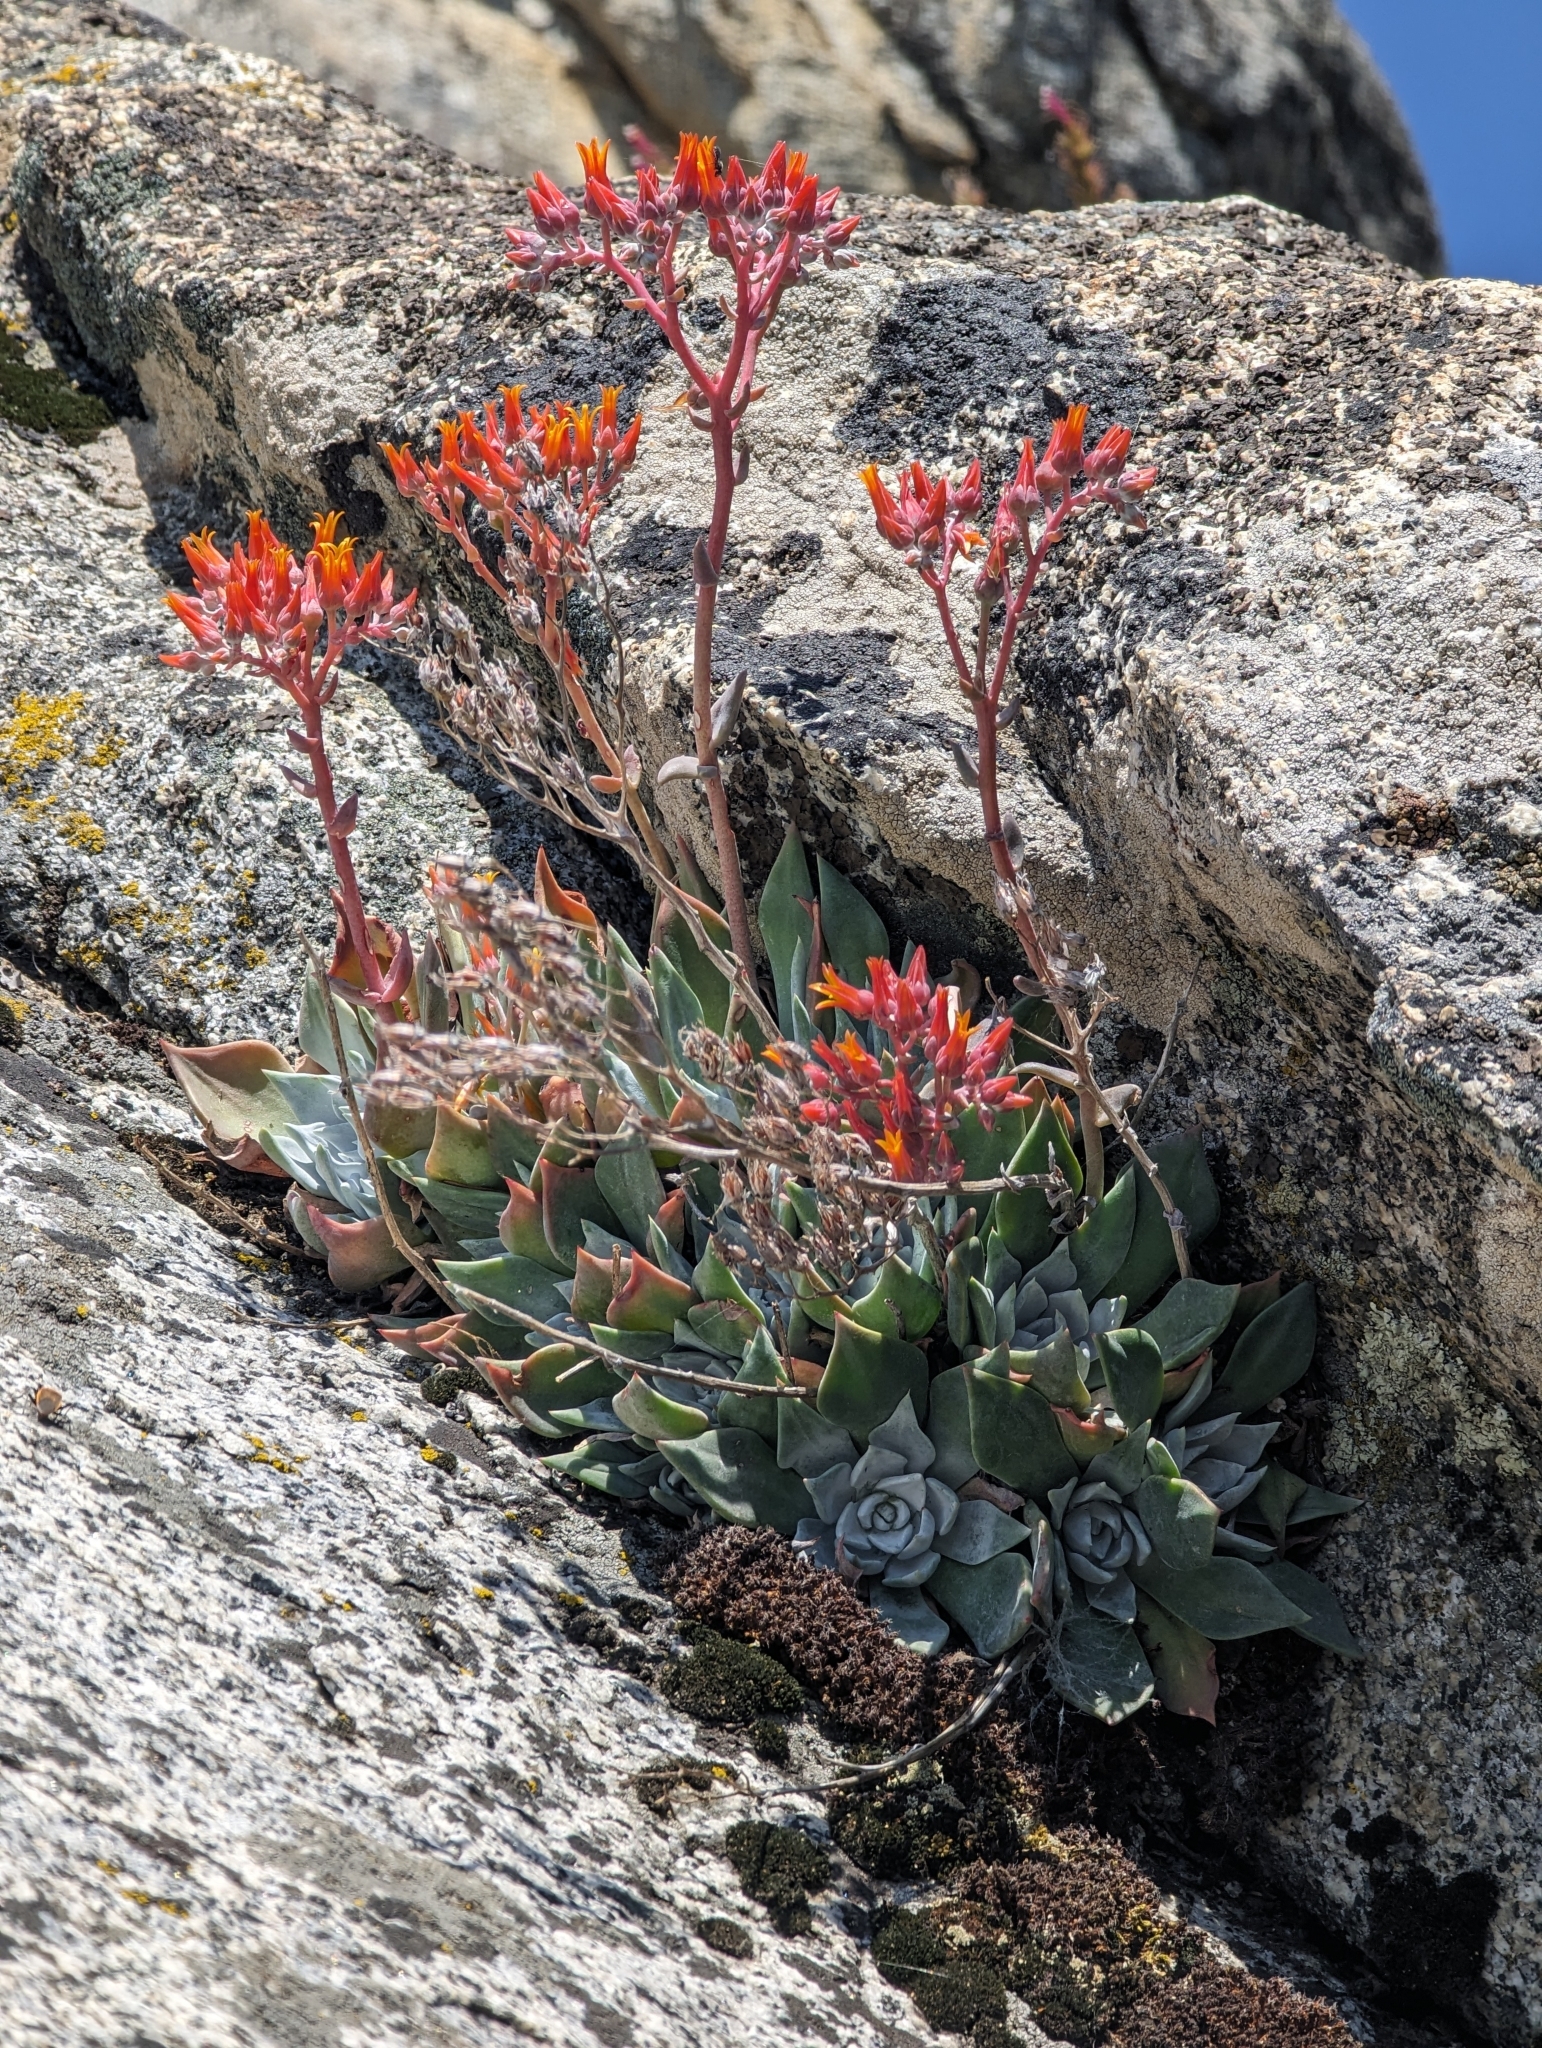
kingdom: Plantae
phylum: Tracheophyta
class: Magnoliopsida
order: Saxifragales
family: Crassulaceae
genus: Dudleya
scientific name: Dudleya cymosa
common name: Canyon dudleya
